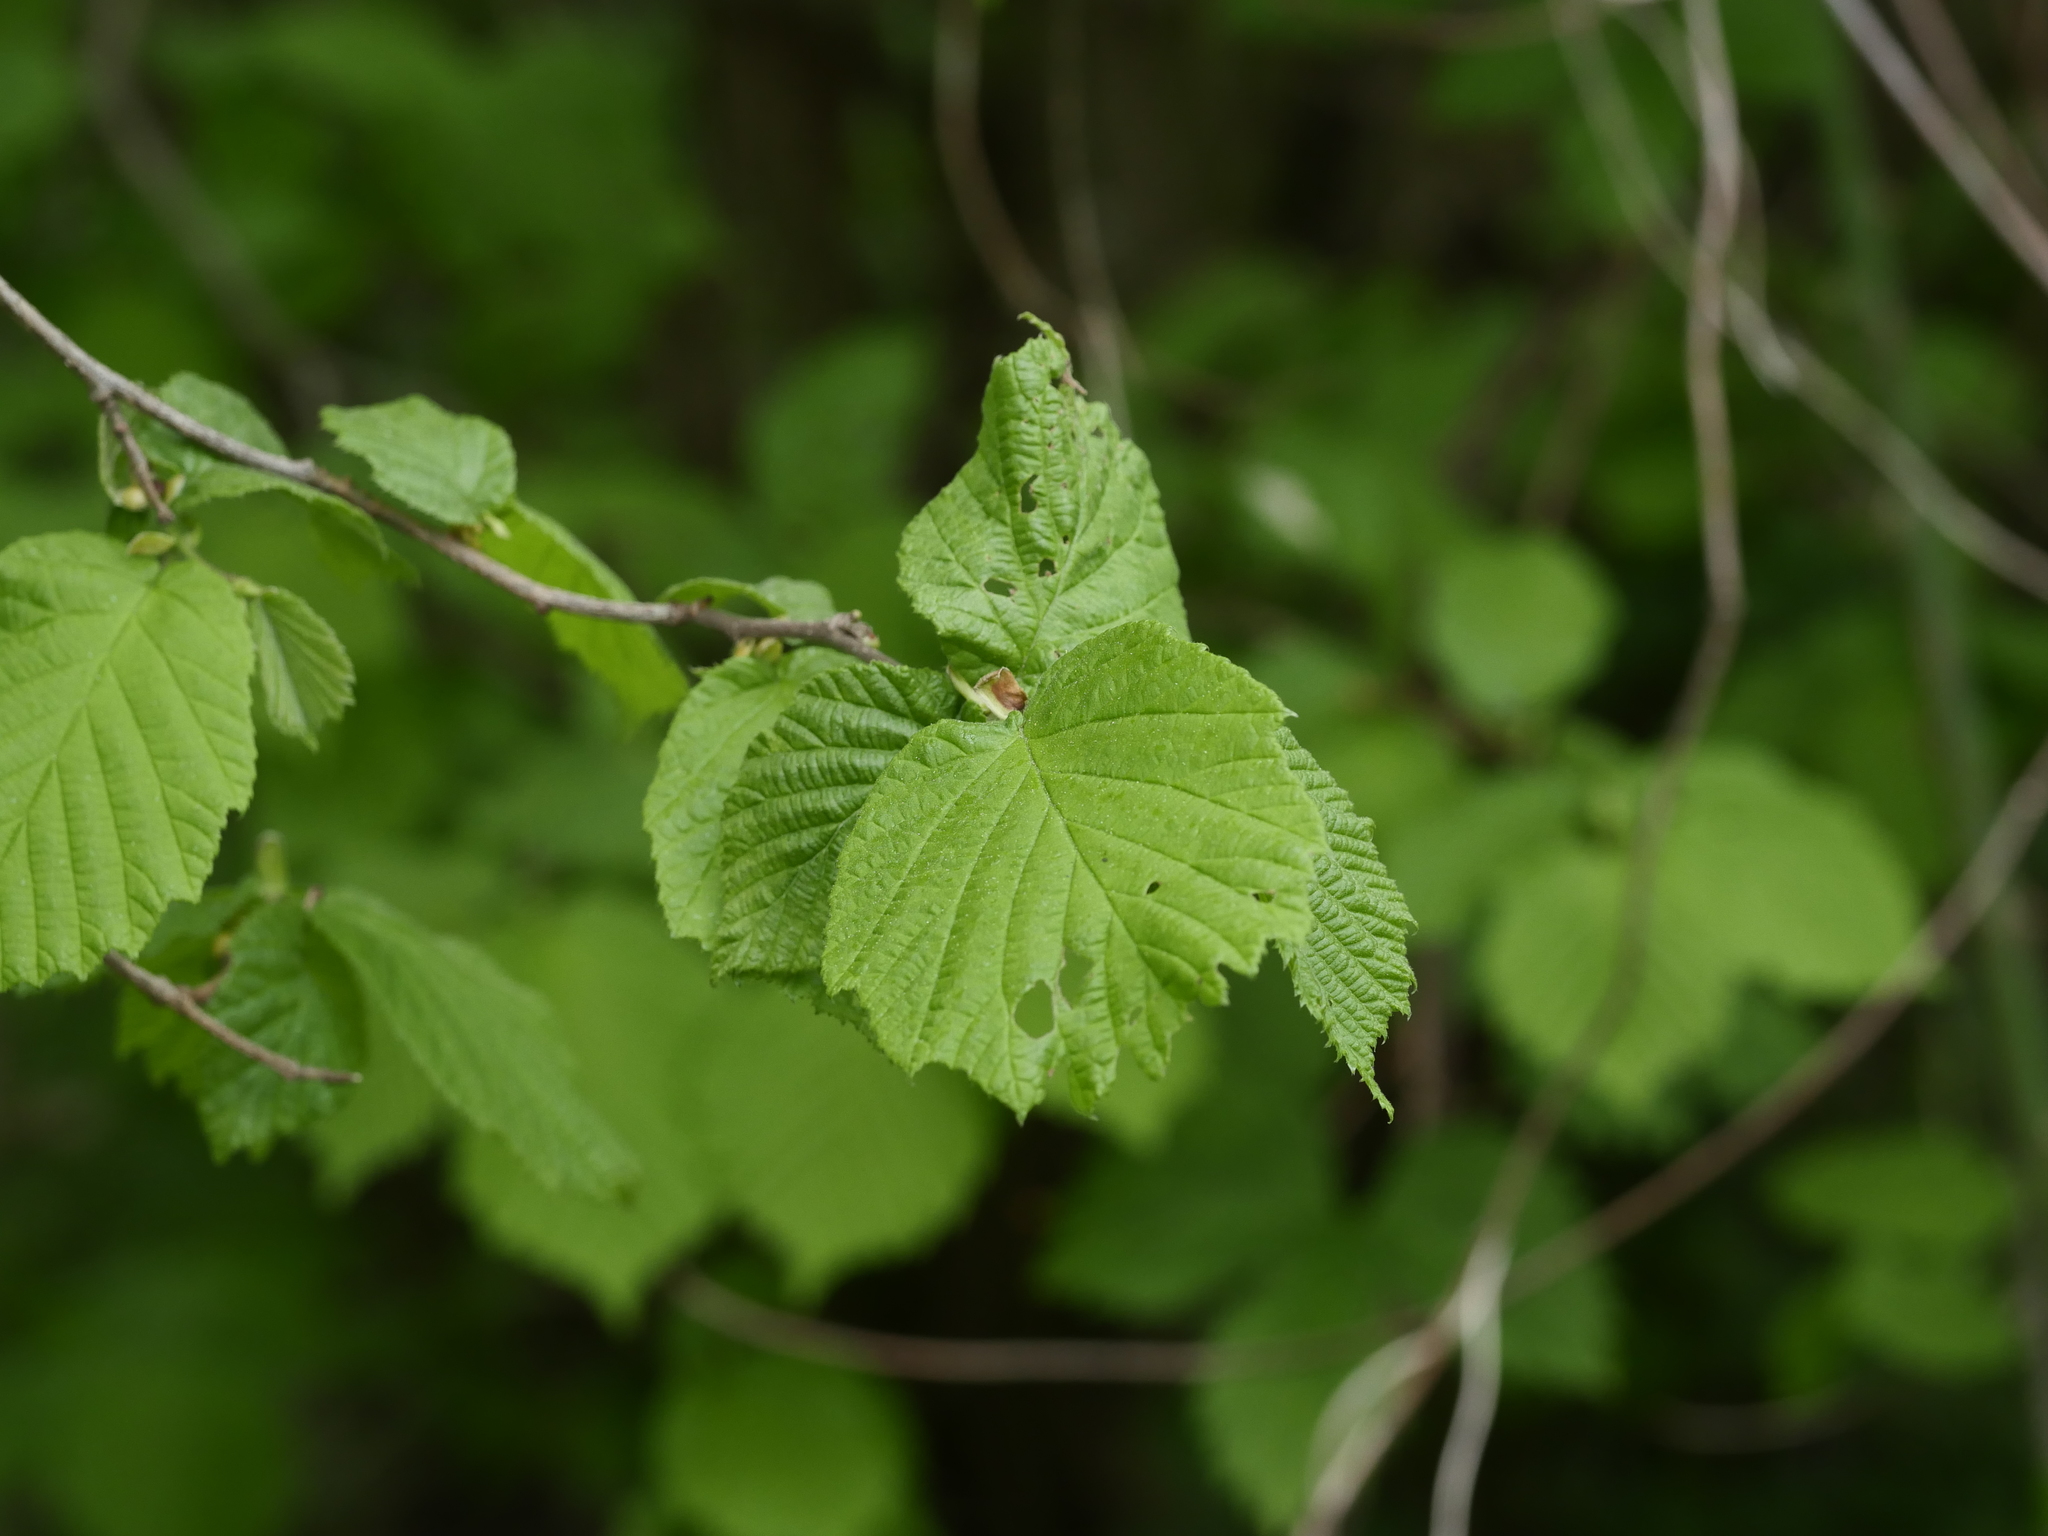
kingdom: Plantae
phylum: Tracheophyta
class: Magnoliopsida
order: Fagales
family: Betulaceae
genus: Corylus
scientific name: Corylus avellana
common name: European hazel
